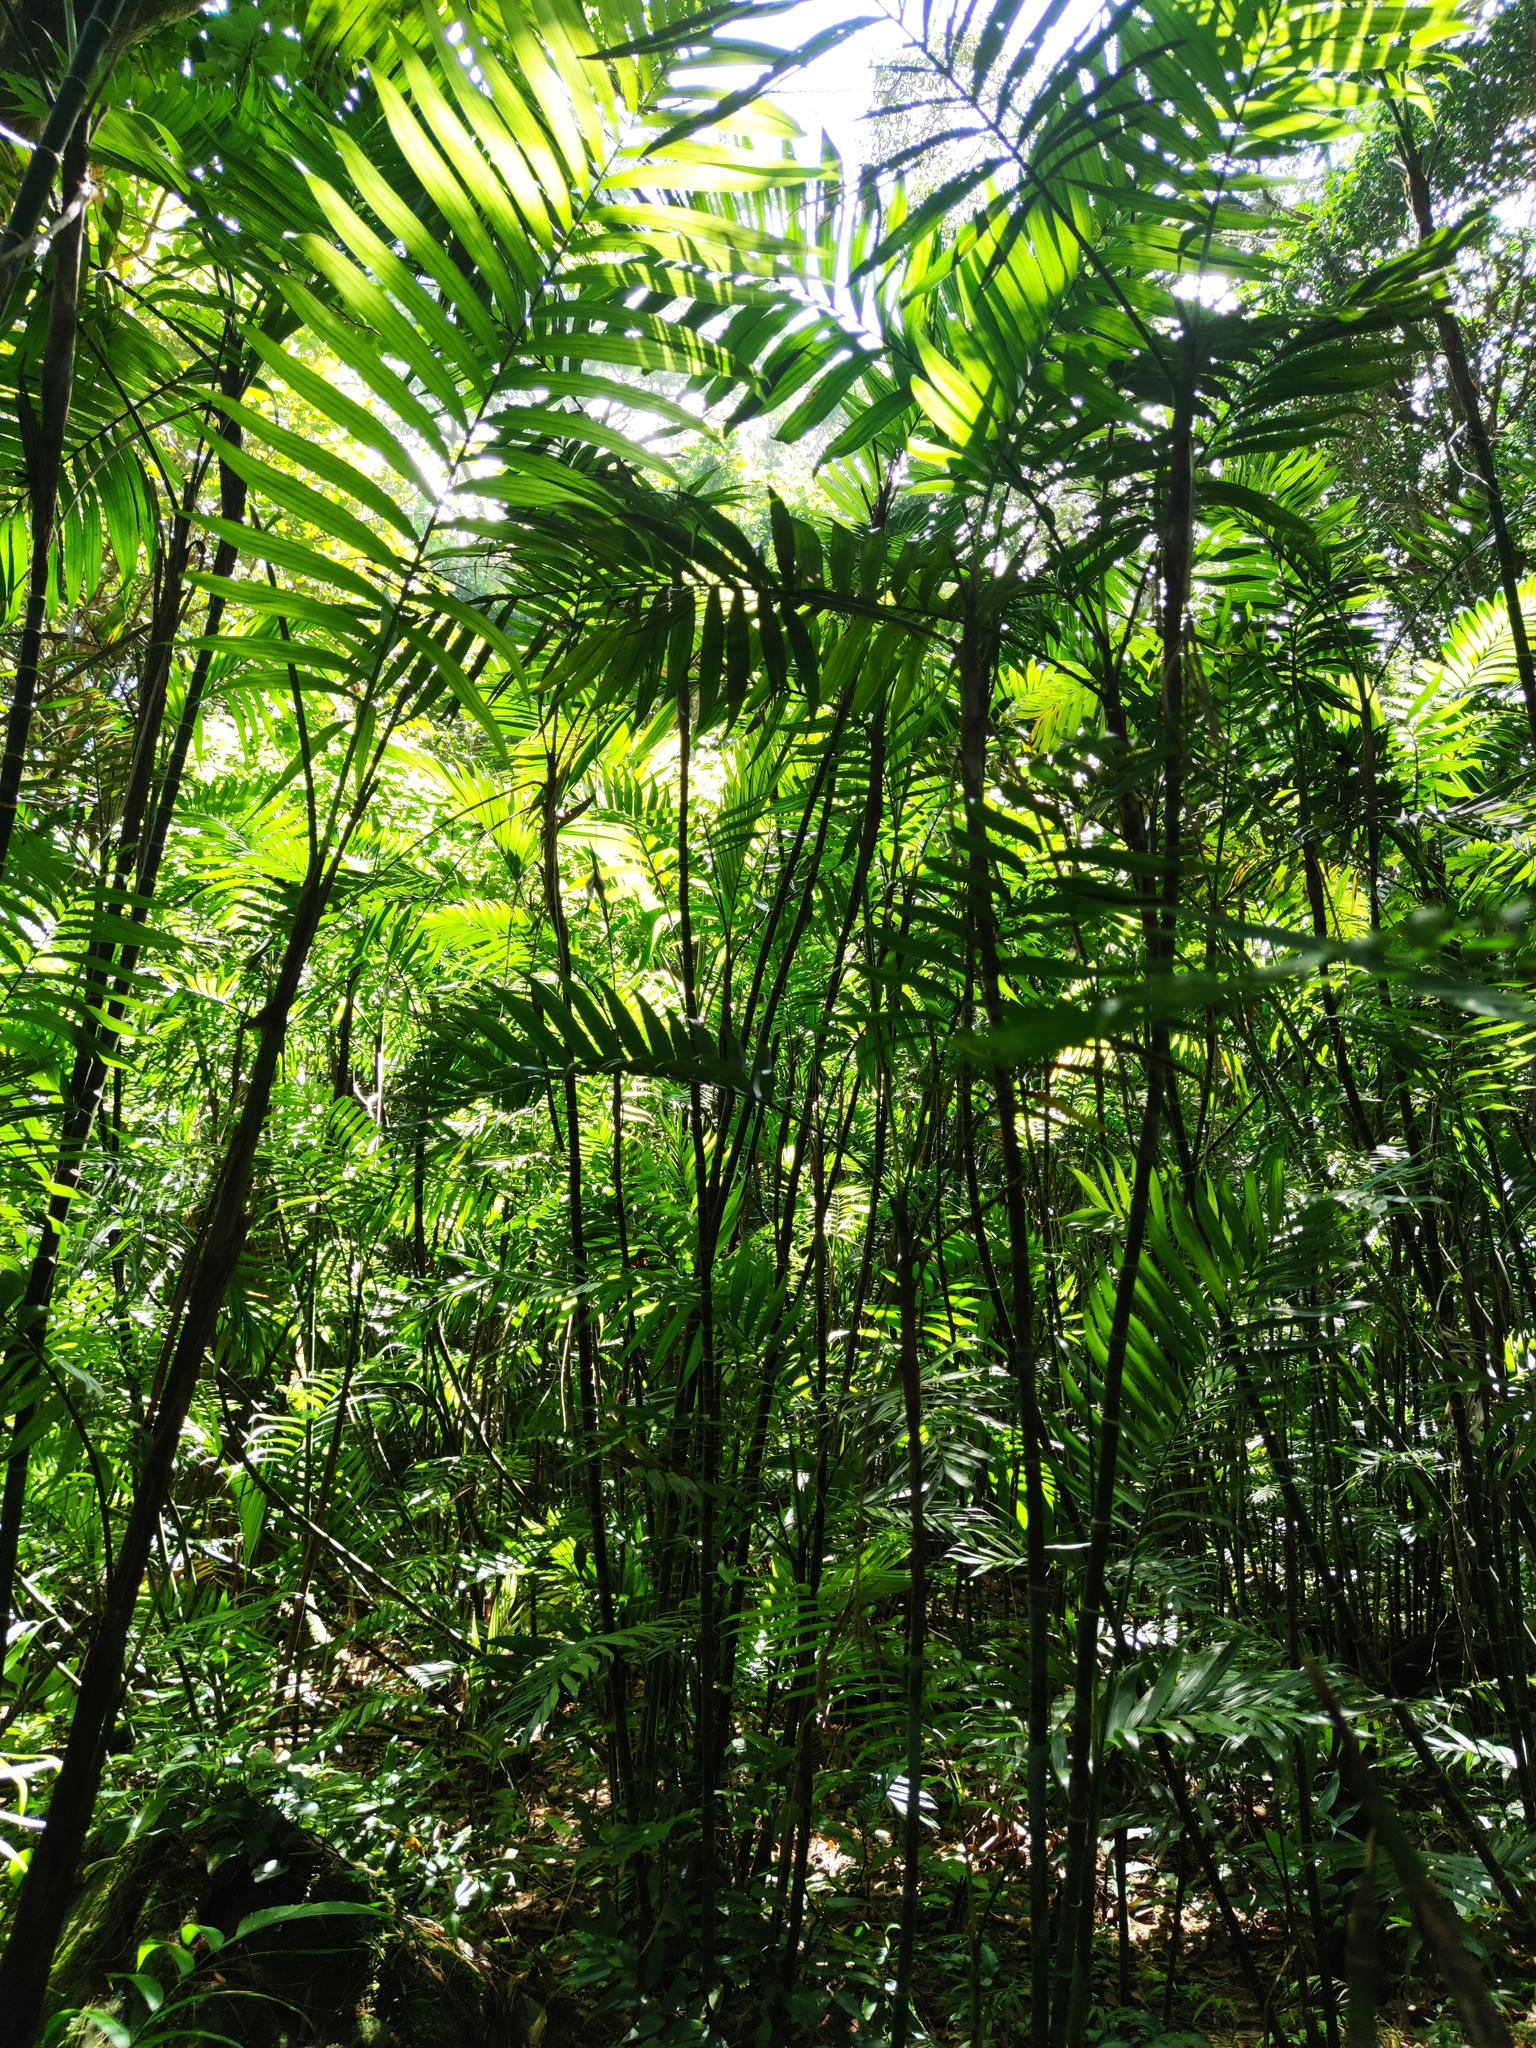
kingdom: Plantae
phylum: Tracheophyta
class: Liliopsida
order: Arecales
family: Arecaceae
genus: Chamaedorea
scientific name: Chamaedorea costaricana
